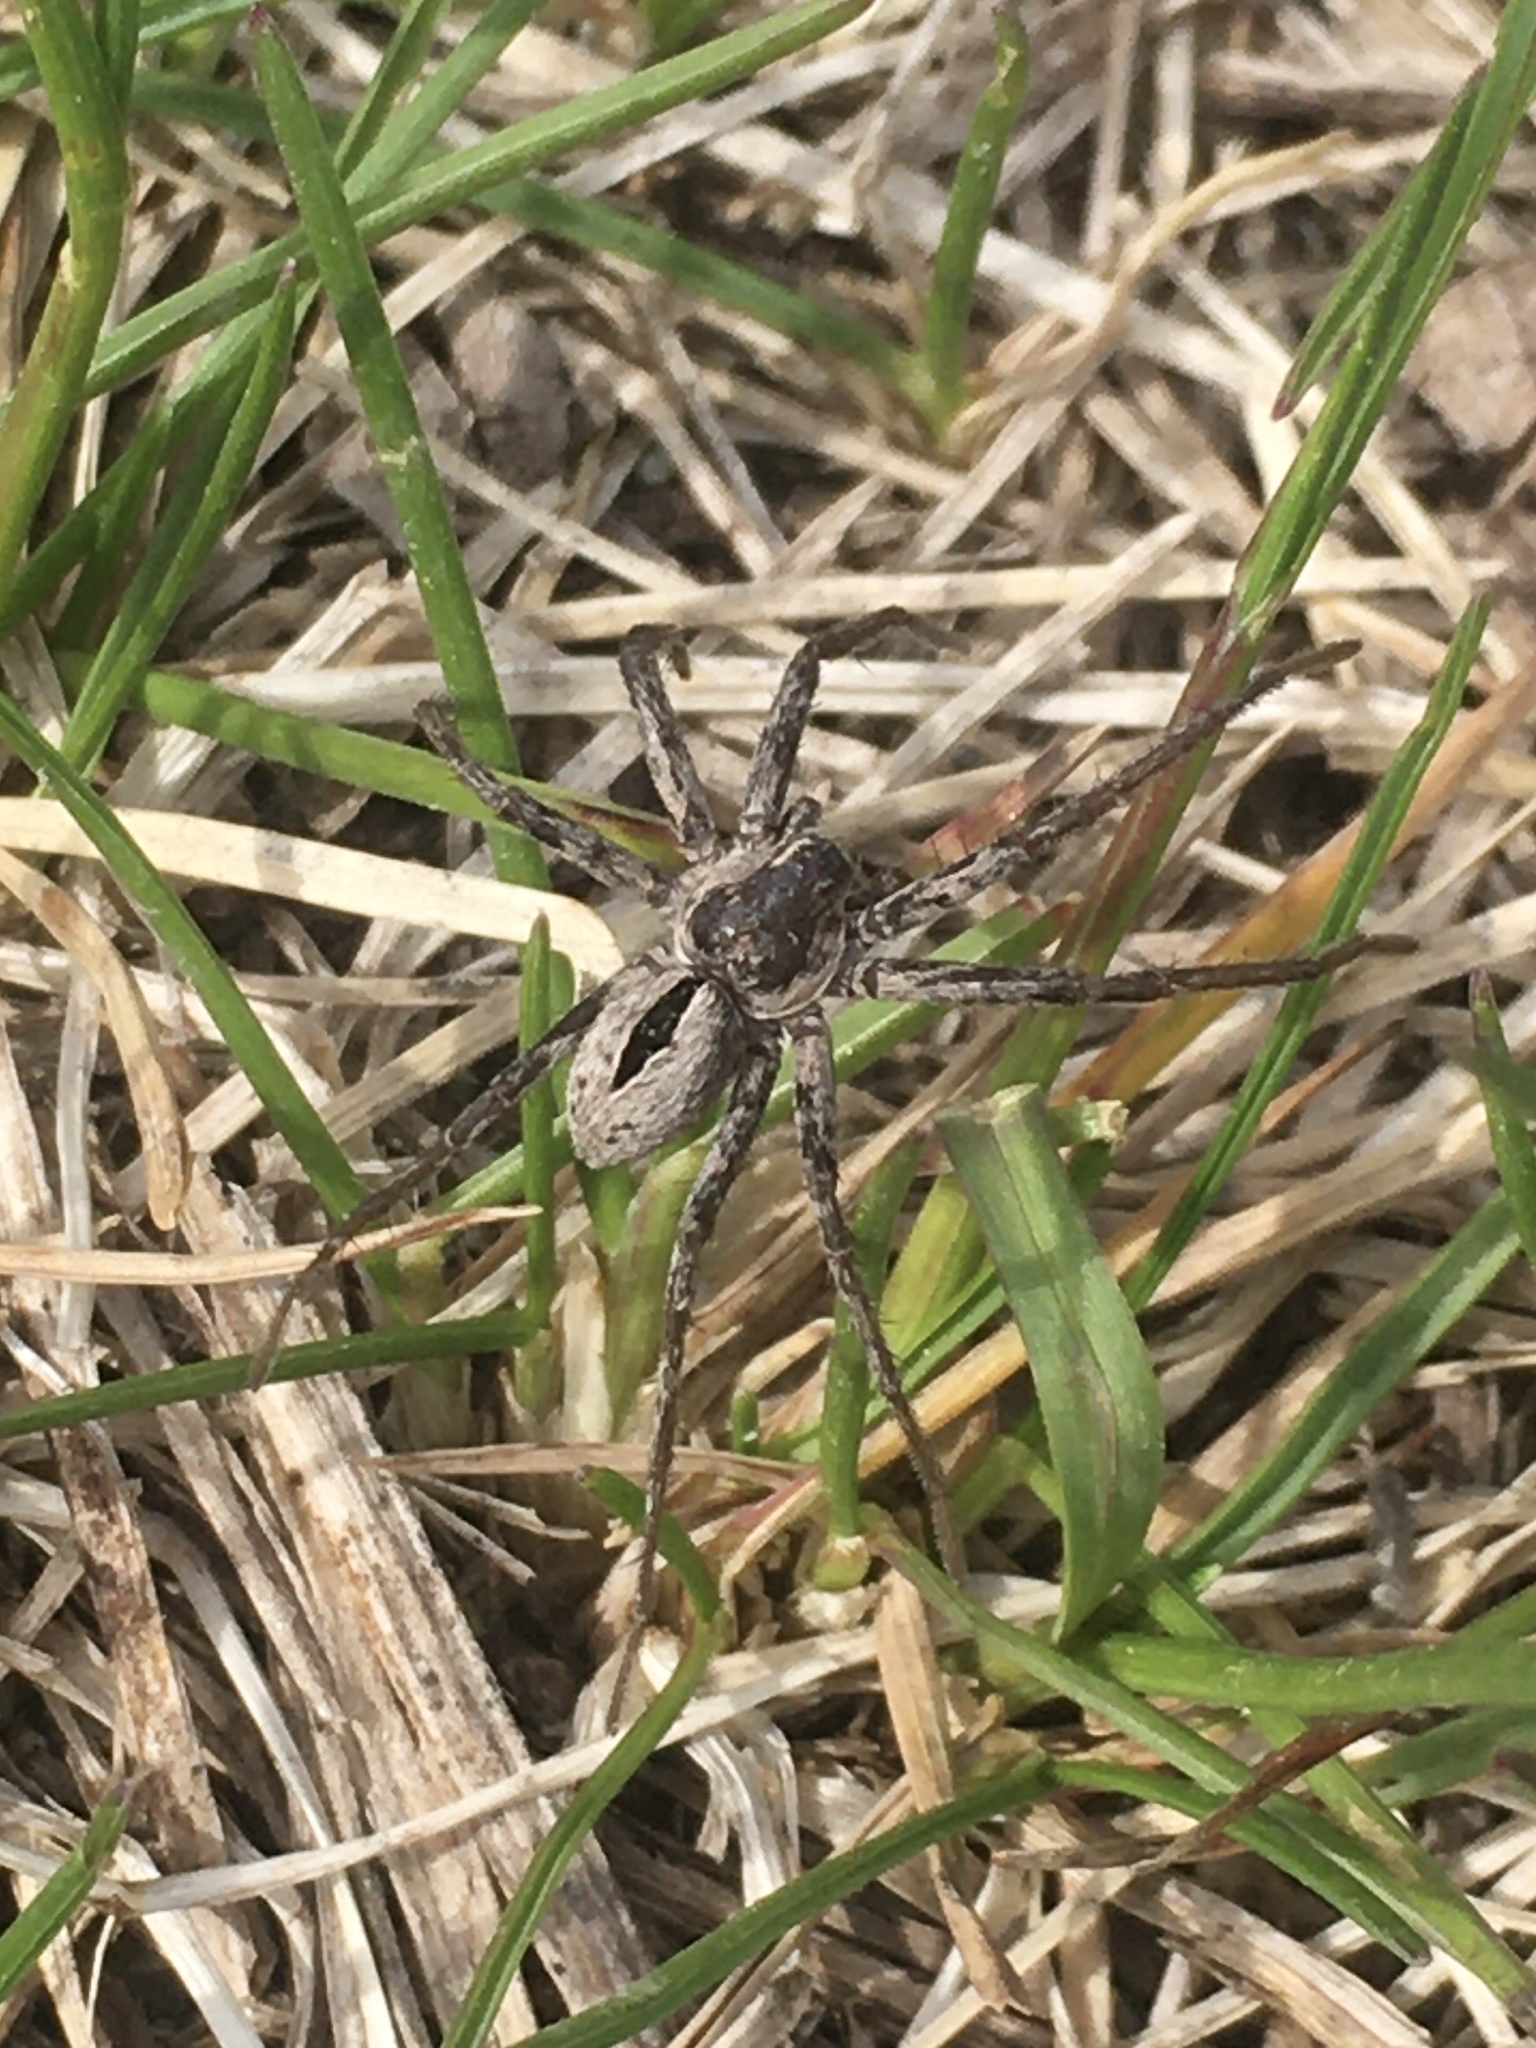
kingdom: Animalia
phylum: Arthropoda
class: Arachnida
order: Araneae
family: Philodromidae
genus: Thanatus
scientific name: Thanatus formicinus
